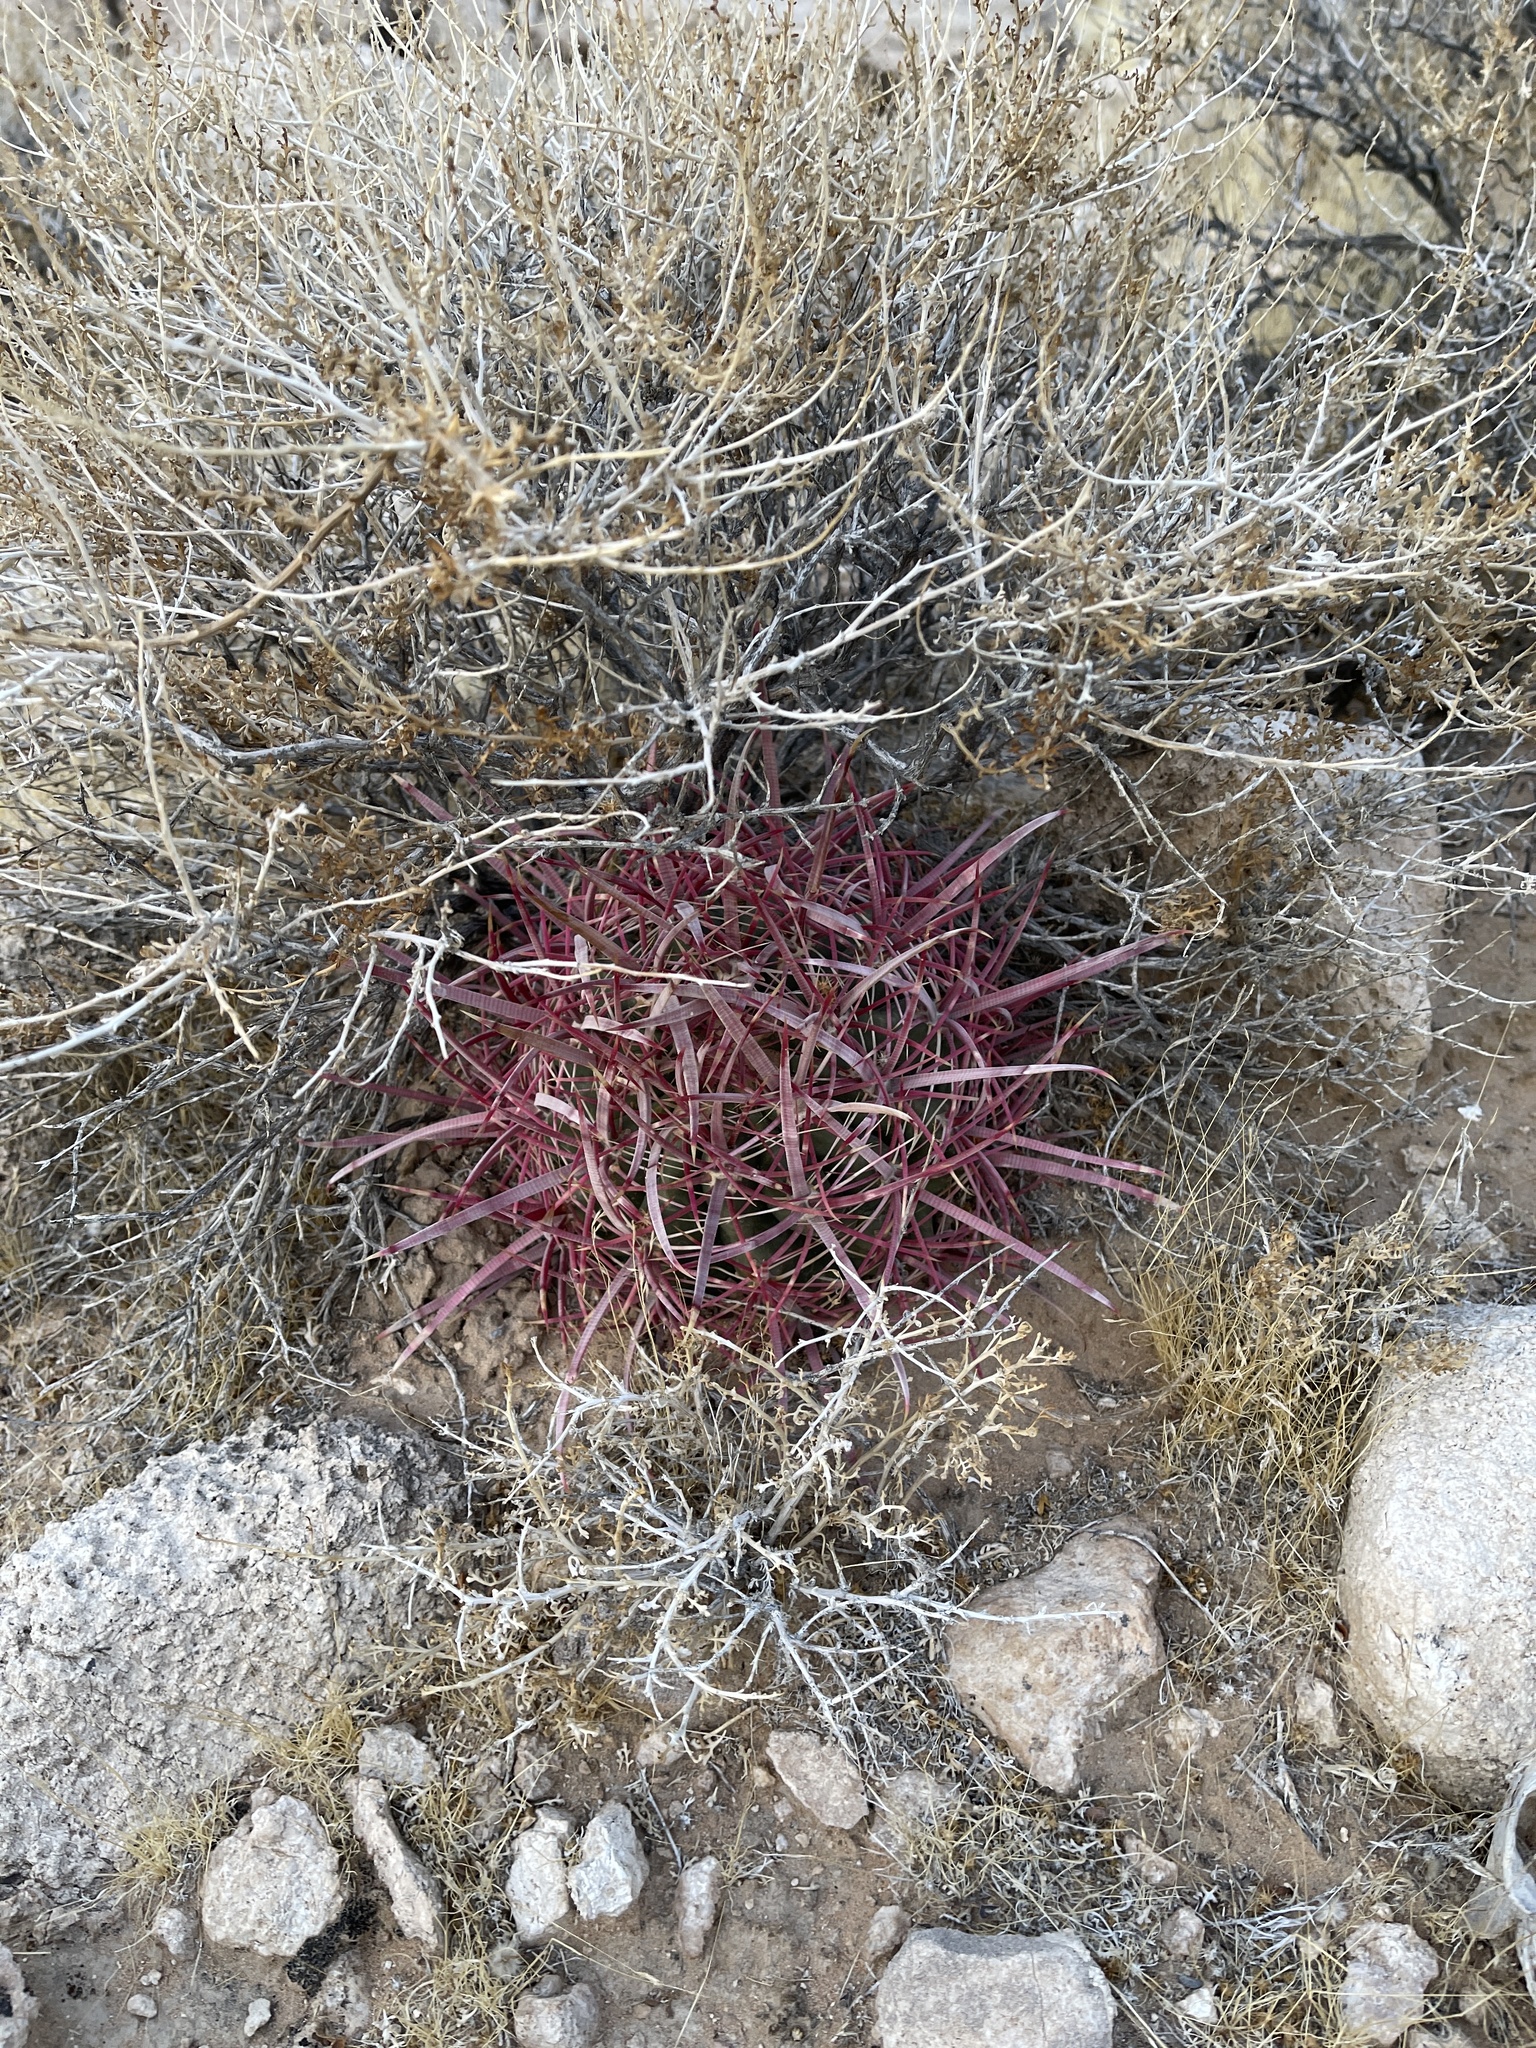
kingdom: Plantae
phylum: Tracheophyta
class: Magnoliopsida
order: Caryophyllales
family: Cactaceae
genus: Ferocactus
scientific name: Ferocactus cylindraceus
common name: California barrel cactus
